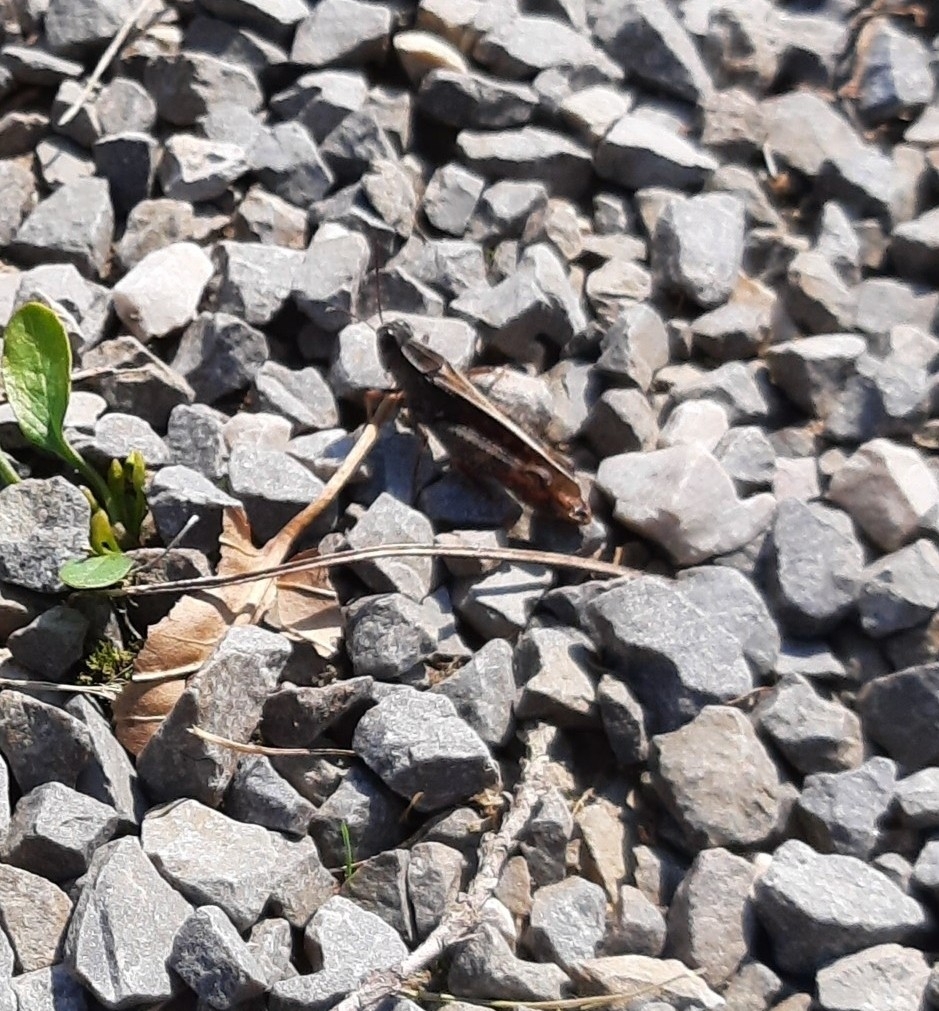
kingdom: Animalia
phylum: Arthropoda
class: Insecta
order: Orthoptera
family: Acrididae
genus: Calliptamus
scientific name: Calliptamus italicus
